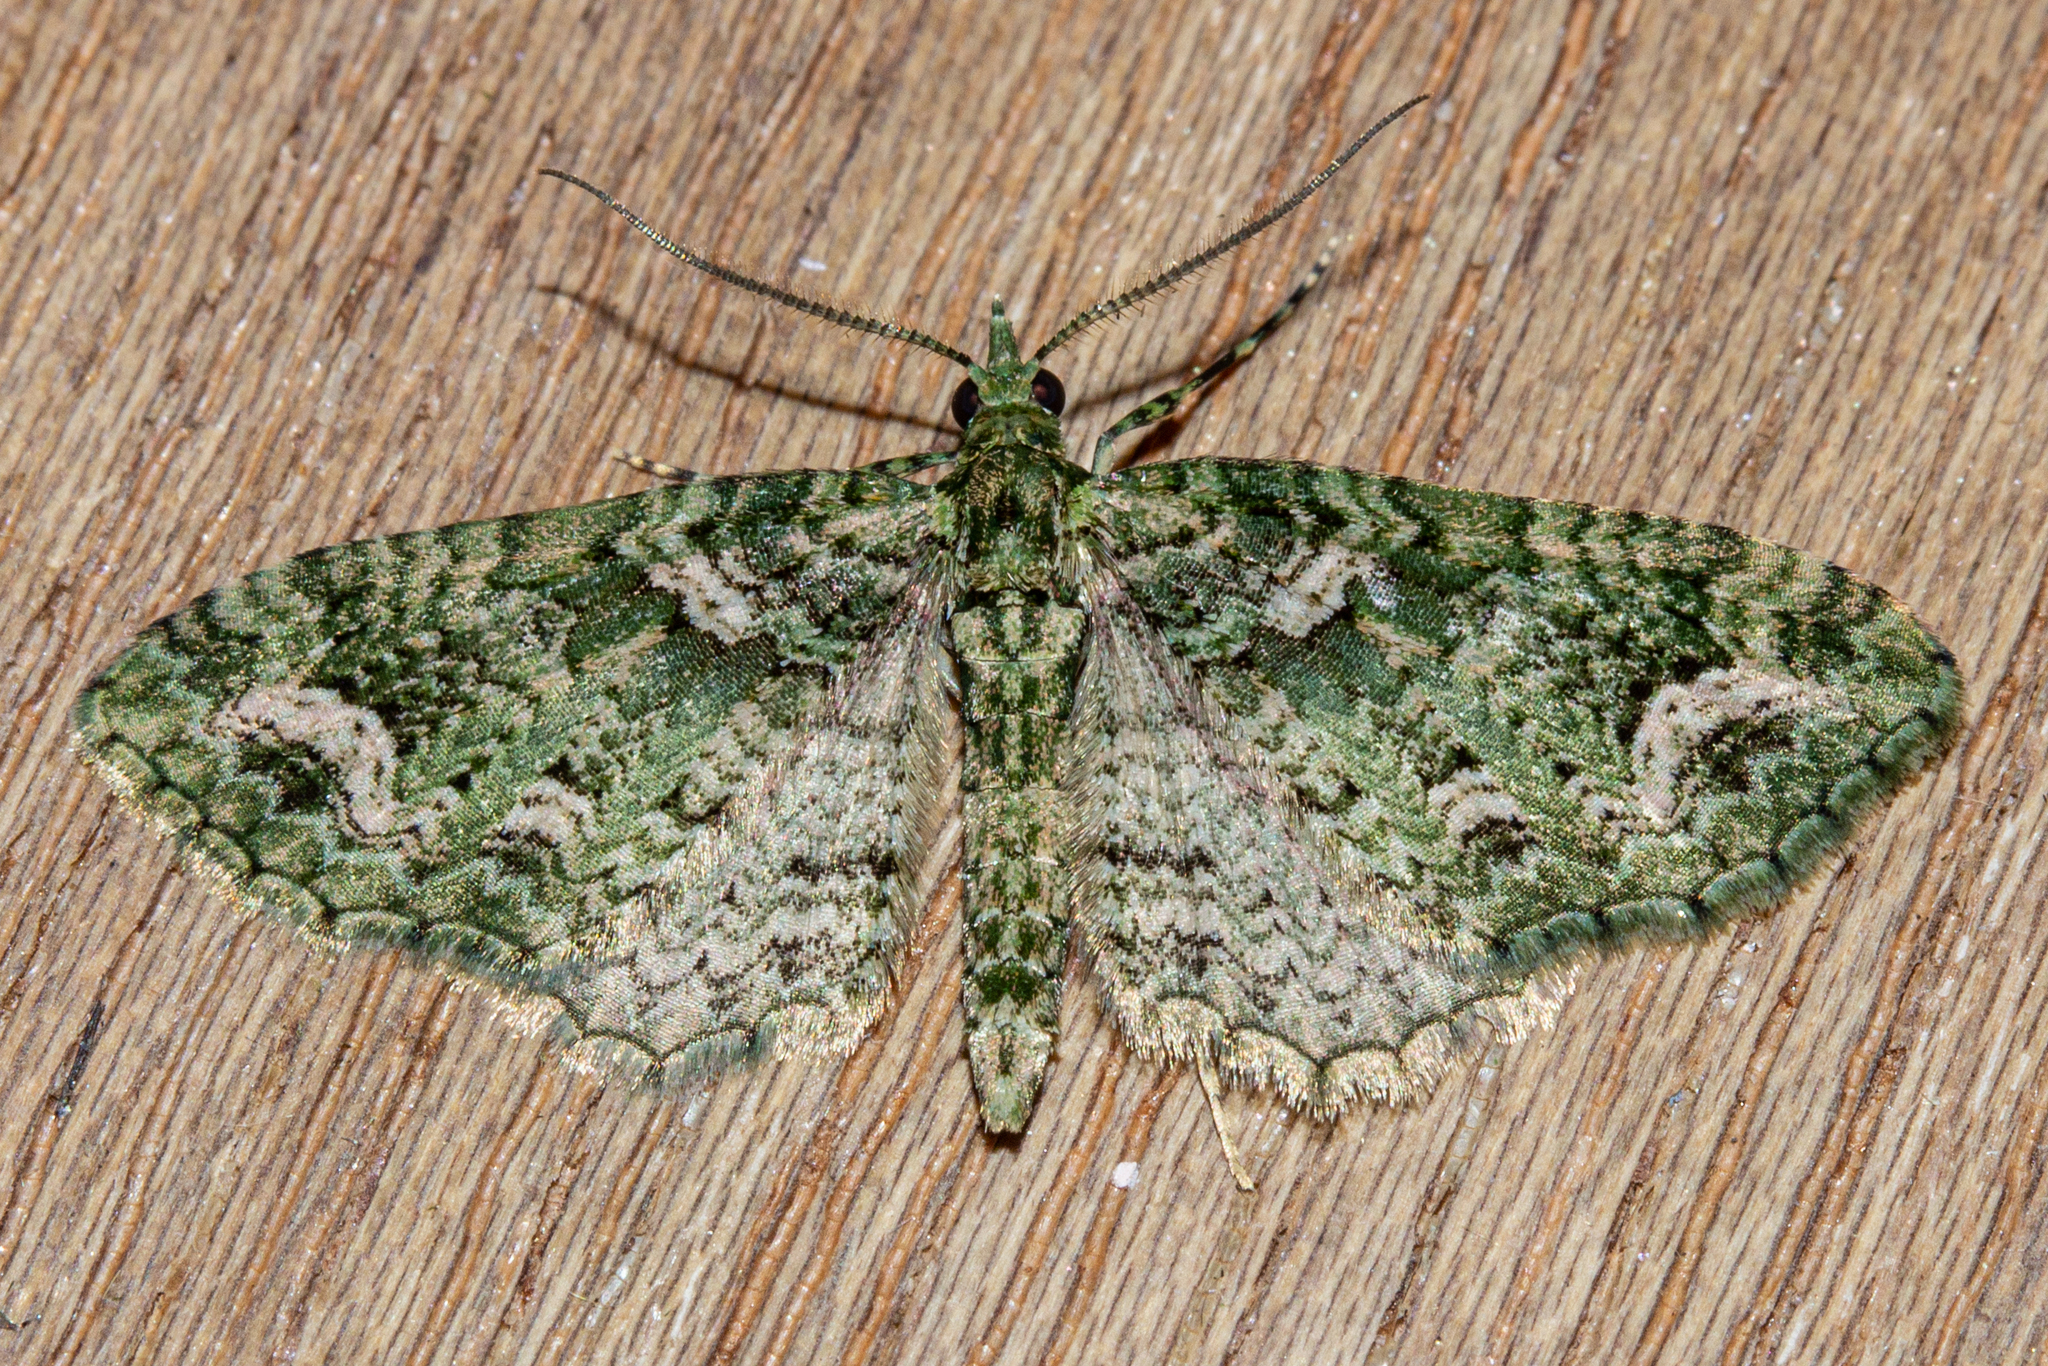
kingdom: Animalia
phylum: Arthropoda
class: Insecta
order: Lepidoptera
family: Geometridae
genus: Pasiphila
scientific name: Pasiphila muscosata
